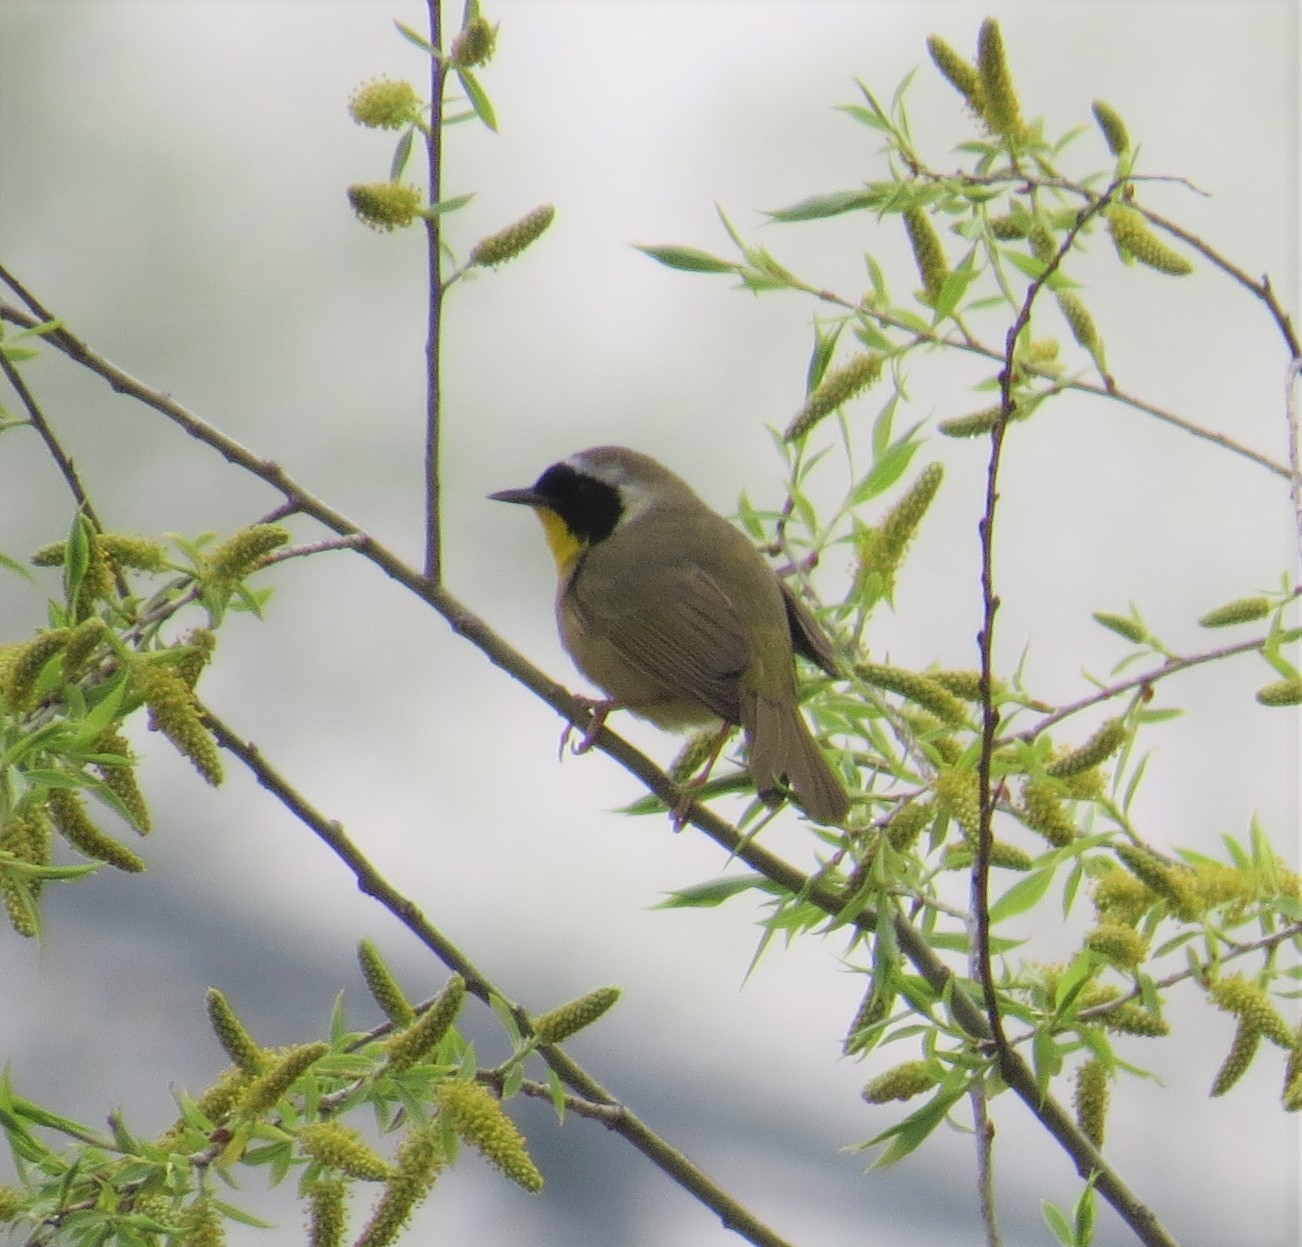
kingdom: Animalia
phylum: Chordata
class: Aves
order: Passeriformes
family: Parulidae
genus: Geothlypis
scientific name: Geothlypis trichas
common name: Common yellowthroat
